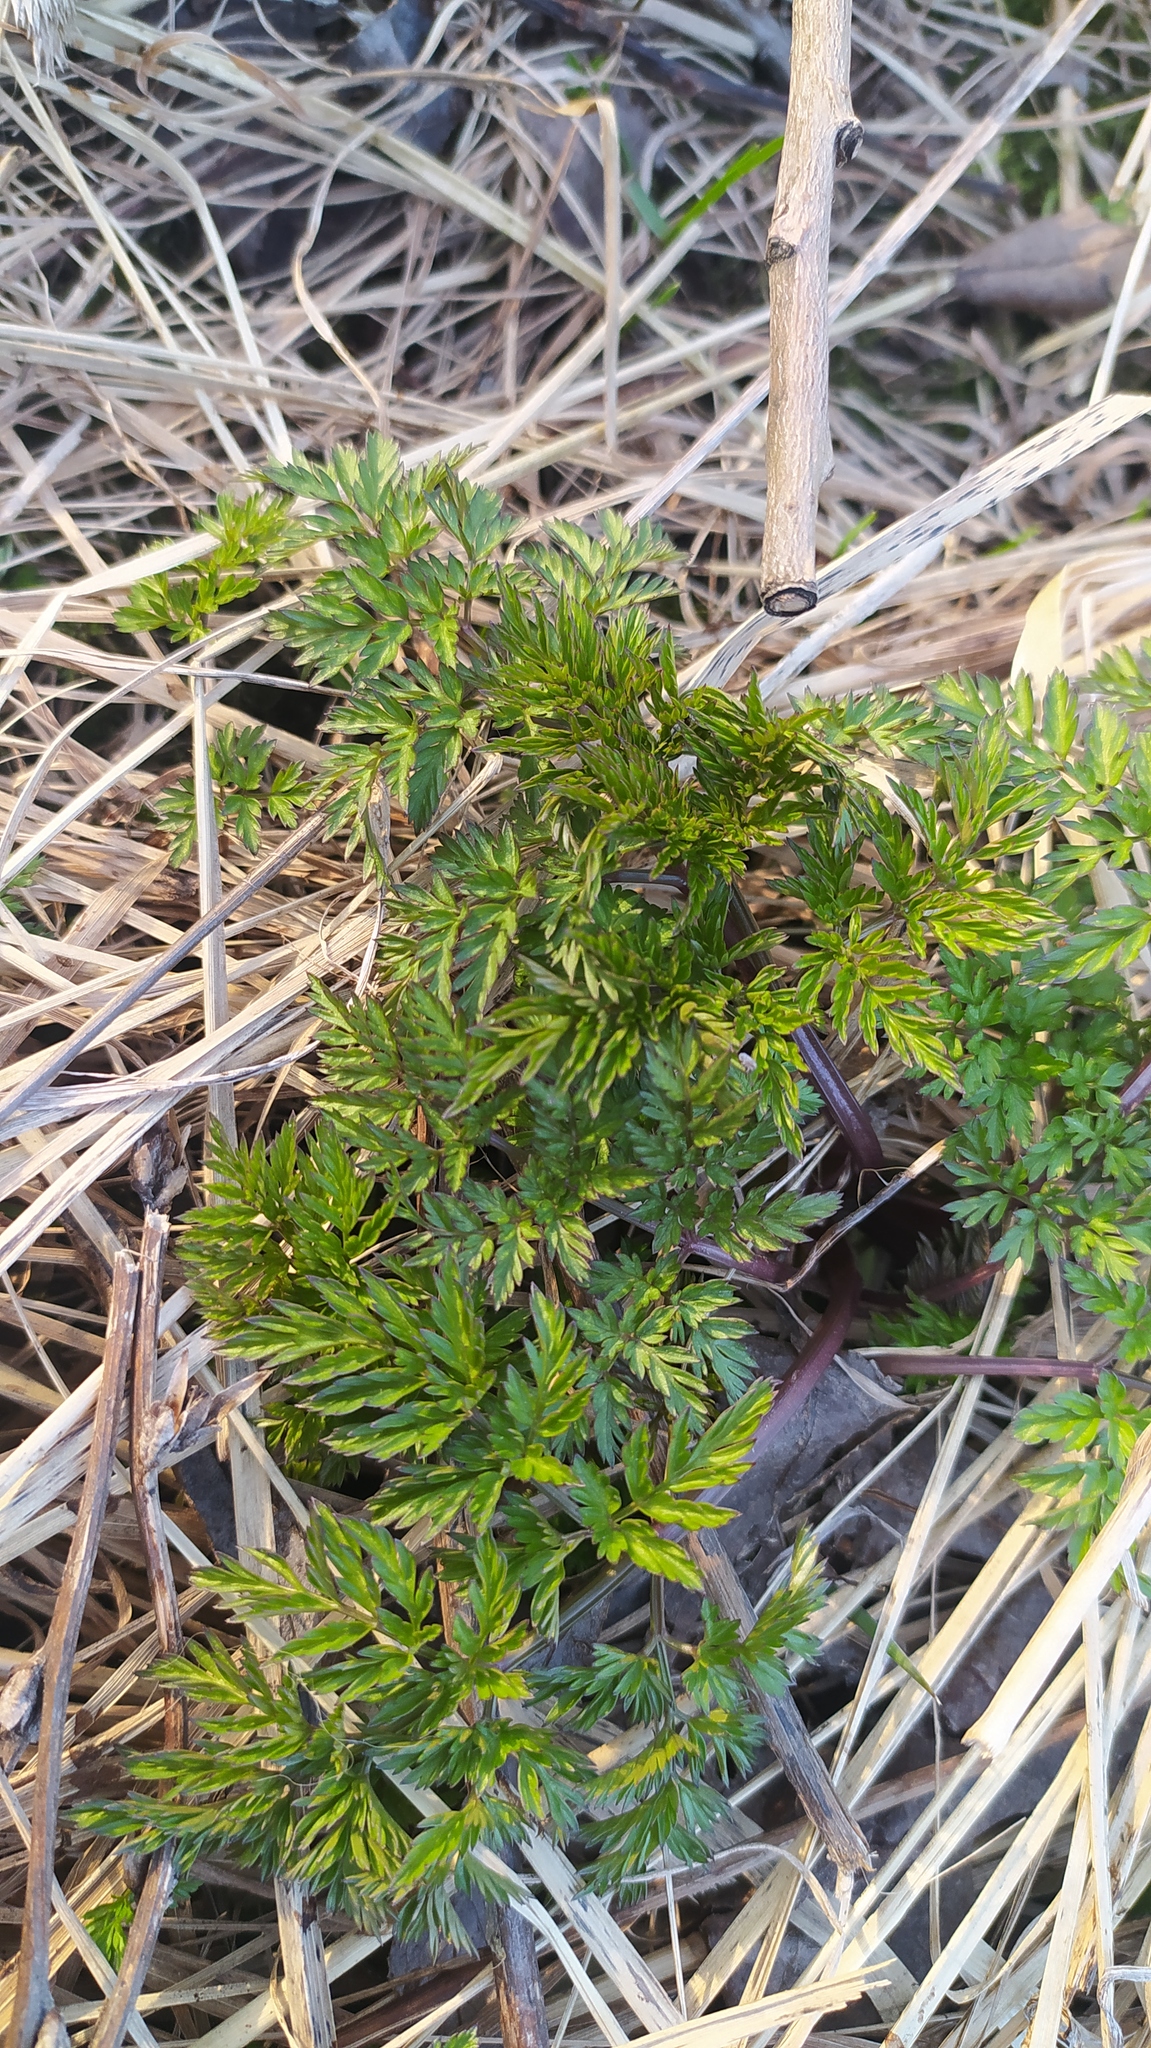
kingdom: Plantae
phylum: Tracheophyta
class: Magnoliopsida
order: Apiales
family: Apiaceae
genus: Anthriscus
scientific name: Anthriscus sylvestris
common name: Cow parsley
